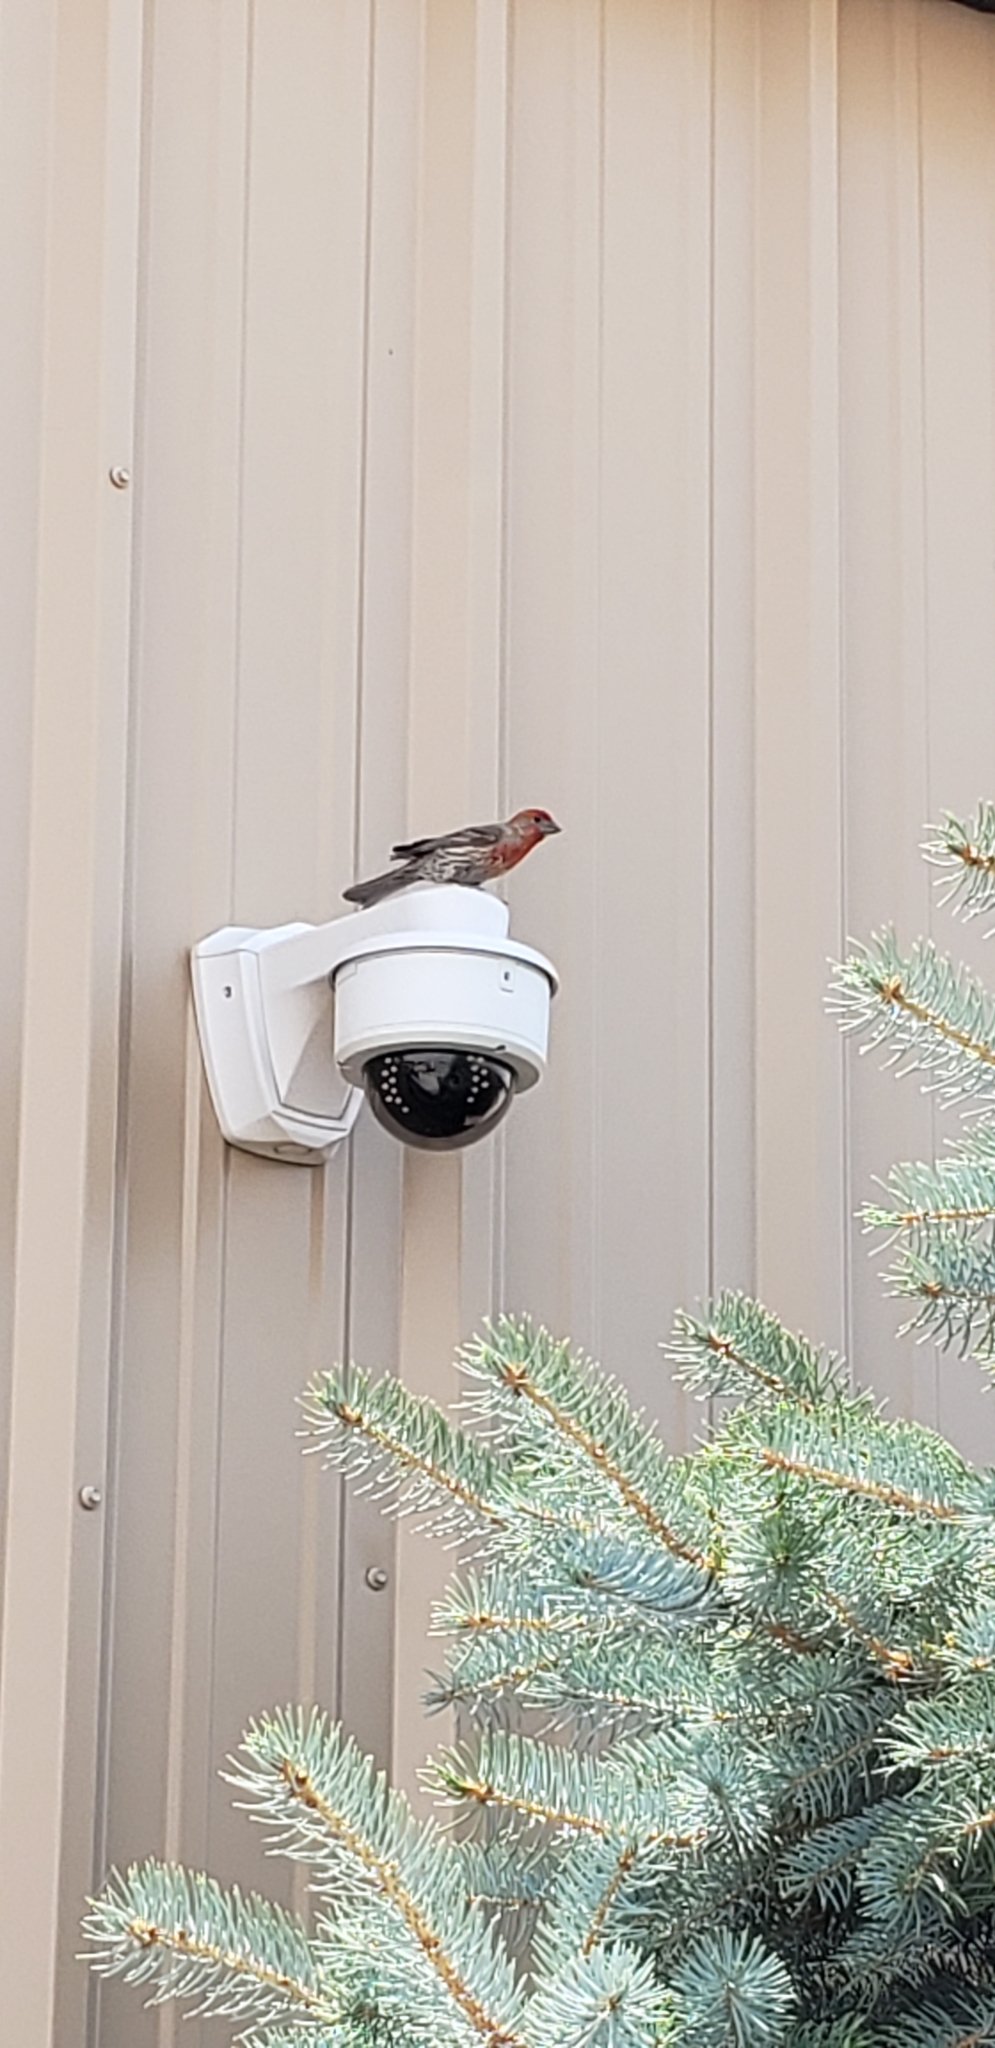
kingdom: Animalia
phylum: Chordata
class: Aves
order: Passeriformes
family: Fringillidae
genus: Haemorhous
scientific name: Haemorhous mexicanus
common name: House finch
